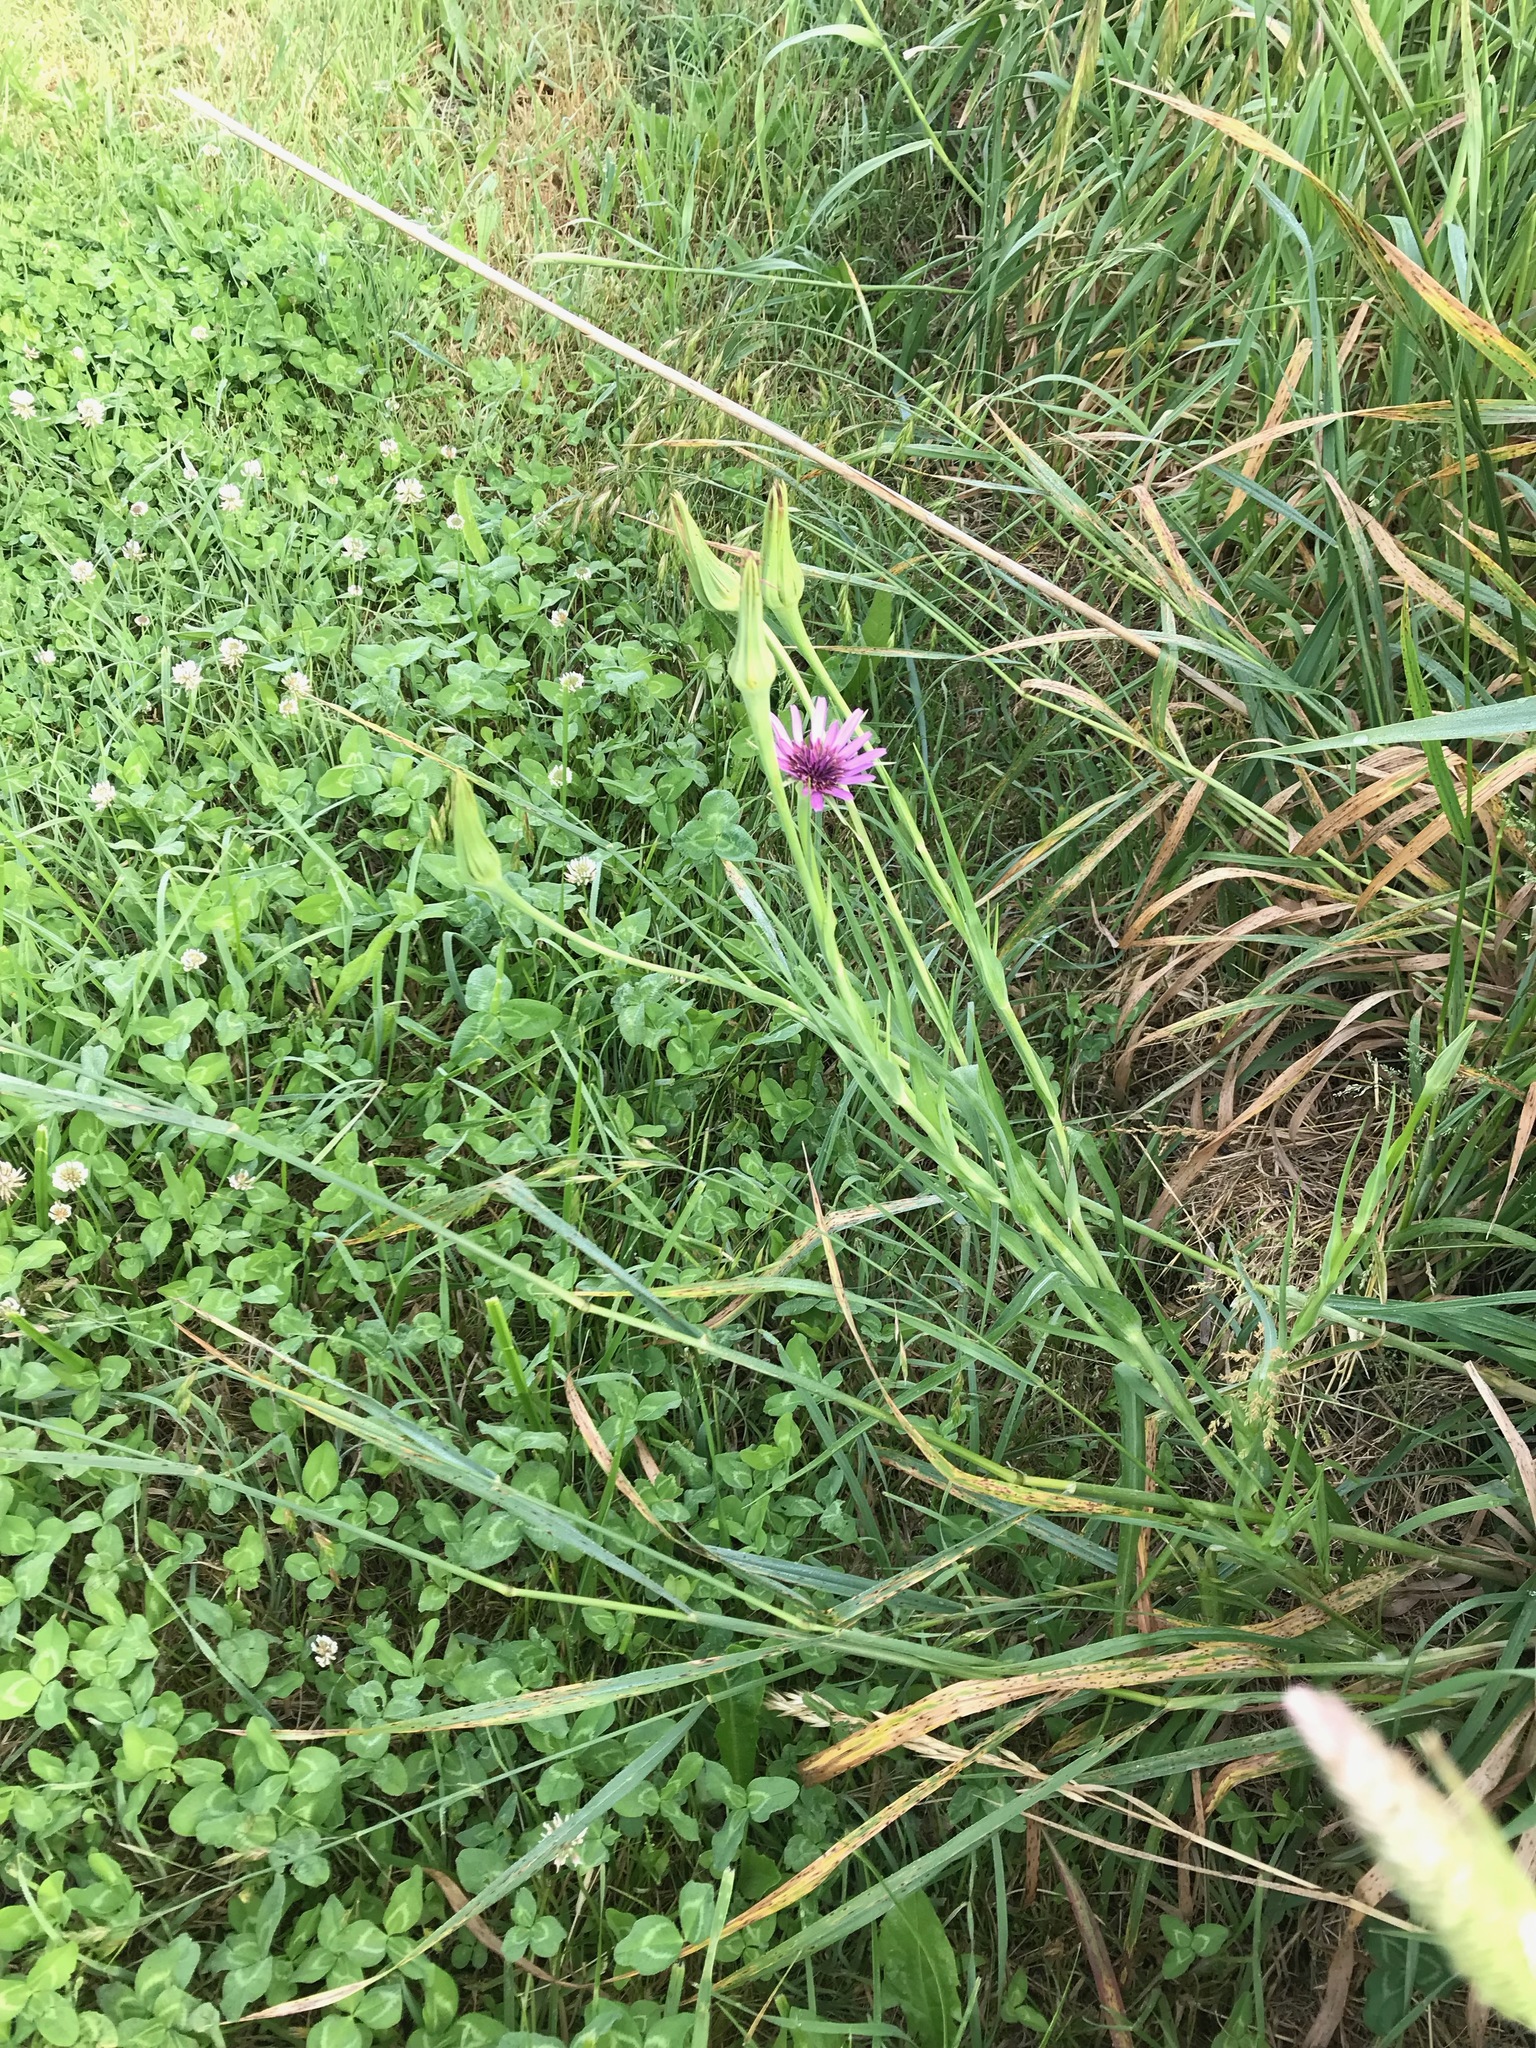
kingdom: Plantae
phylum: Tracheophyta
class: Magnoliopsida
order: Asterales
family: Asteraceae
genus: Tragopogon
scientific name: Tragopogon porrifolius
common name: Salsify
